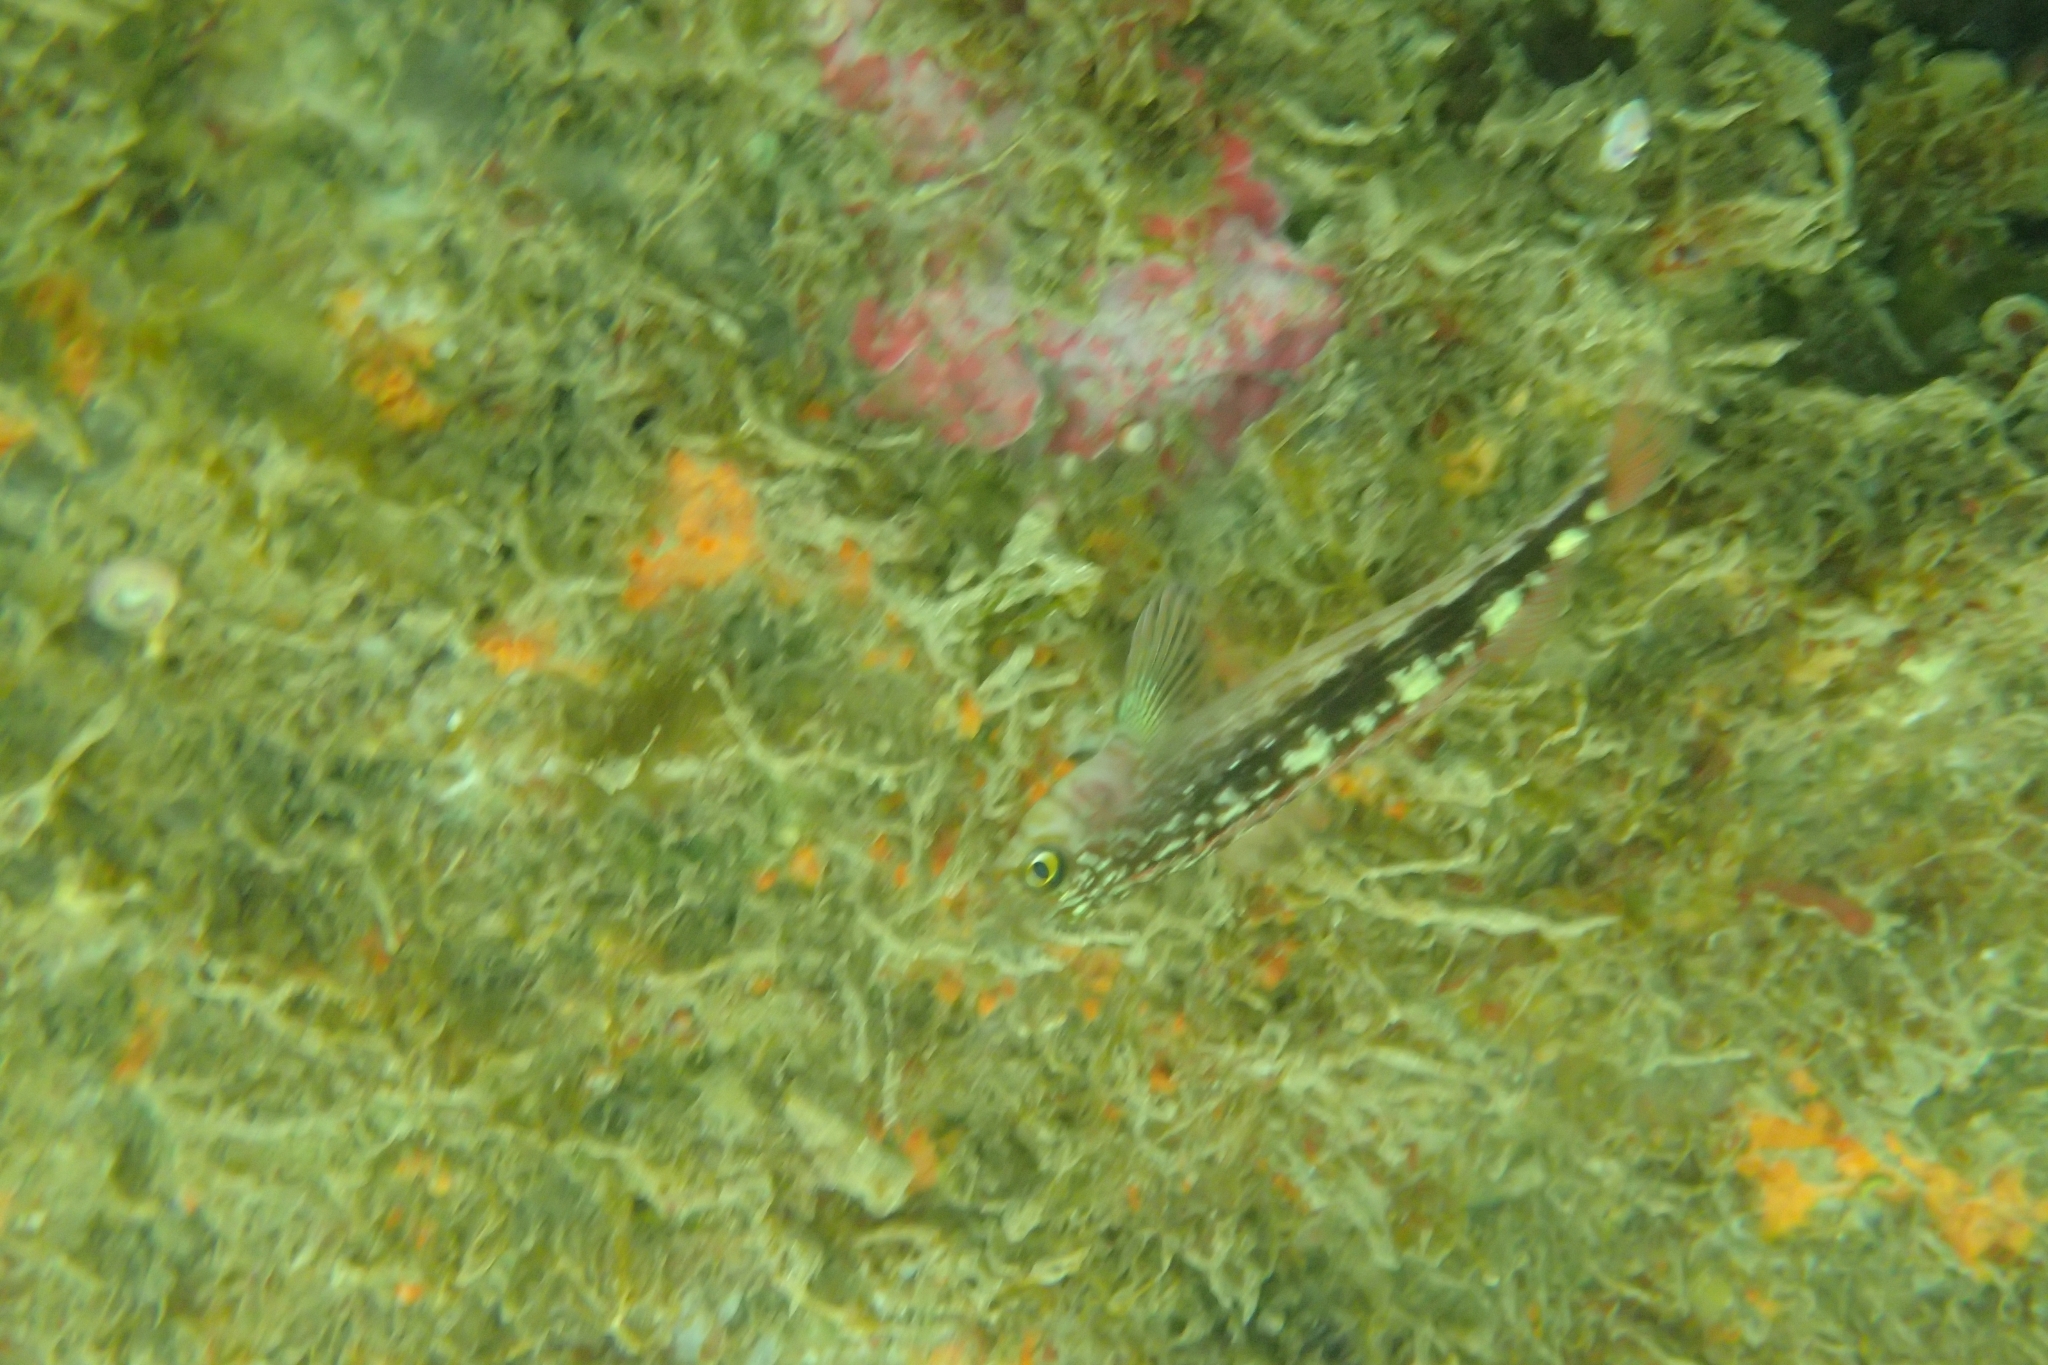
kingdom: Animalia
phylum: Chordata
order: Perciformes
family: Tripterygiidae
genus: Forsterygion
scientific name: Forsterygion varium
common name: Variable triplefin
